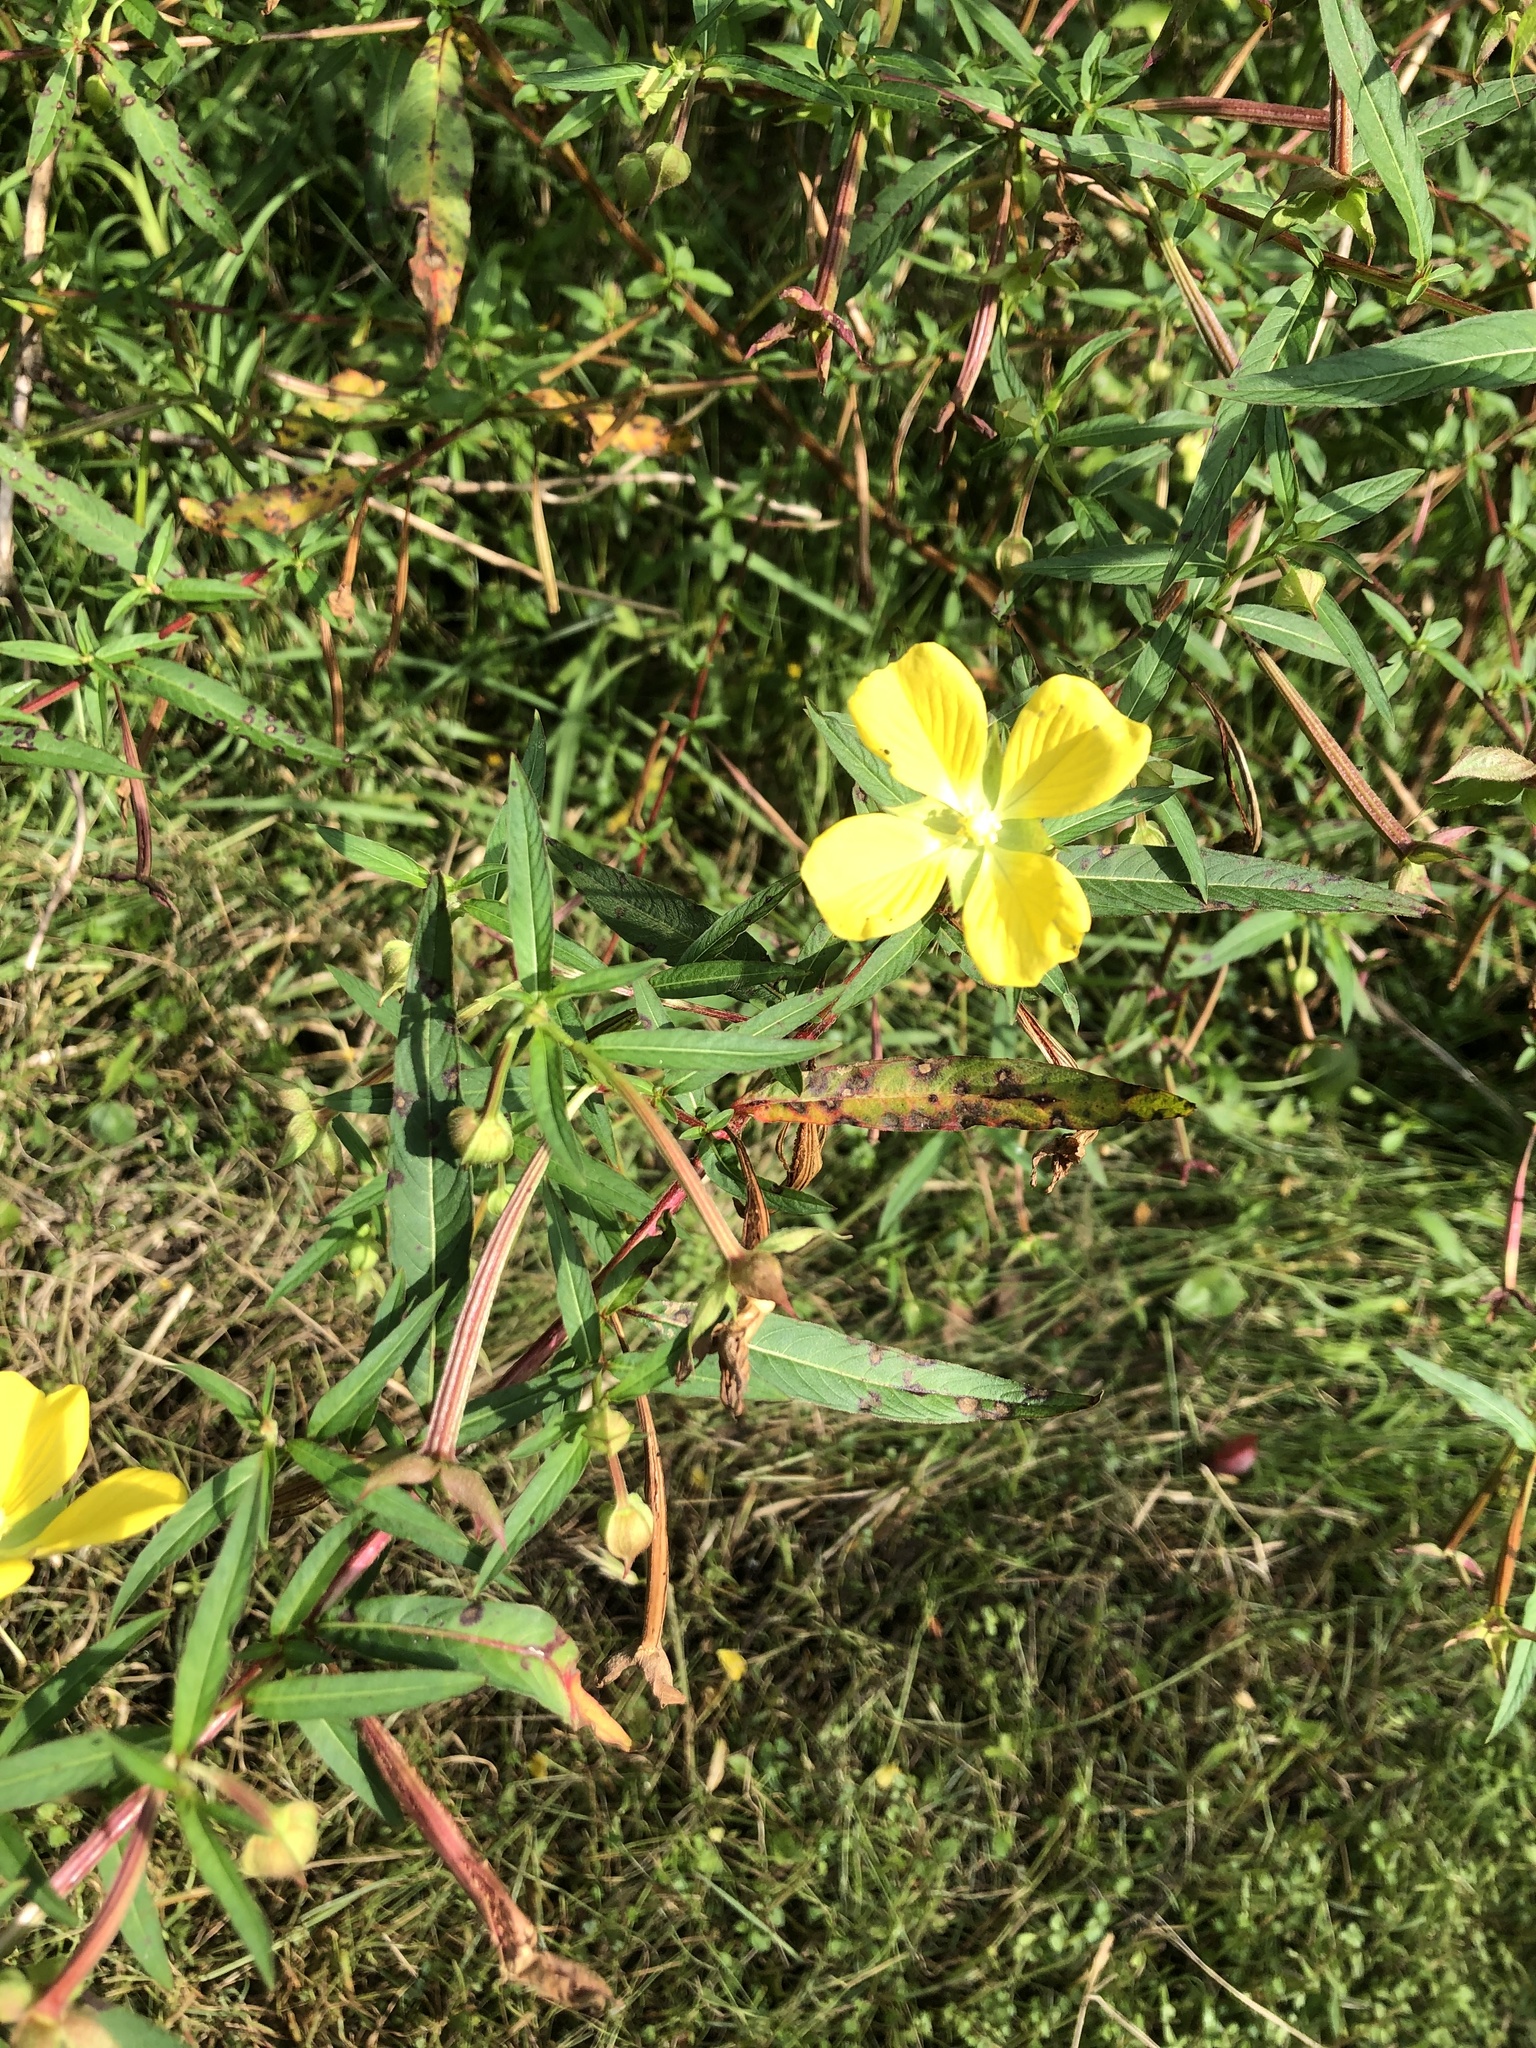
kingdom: Plantae
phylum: Tracheophyta
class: Magnoliopsida
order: Myrtales
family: Onagraceae
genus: Ludwigia
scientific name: Ludwigia octovalvis
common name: Water-primrose
